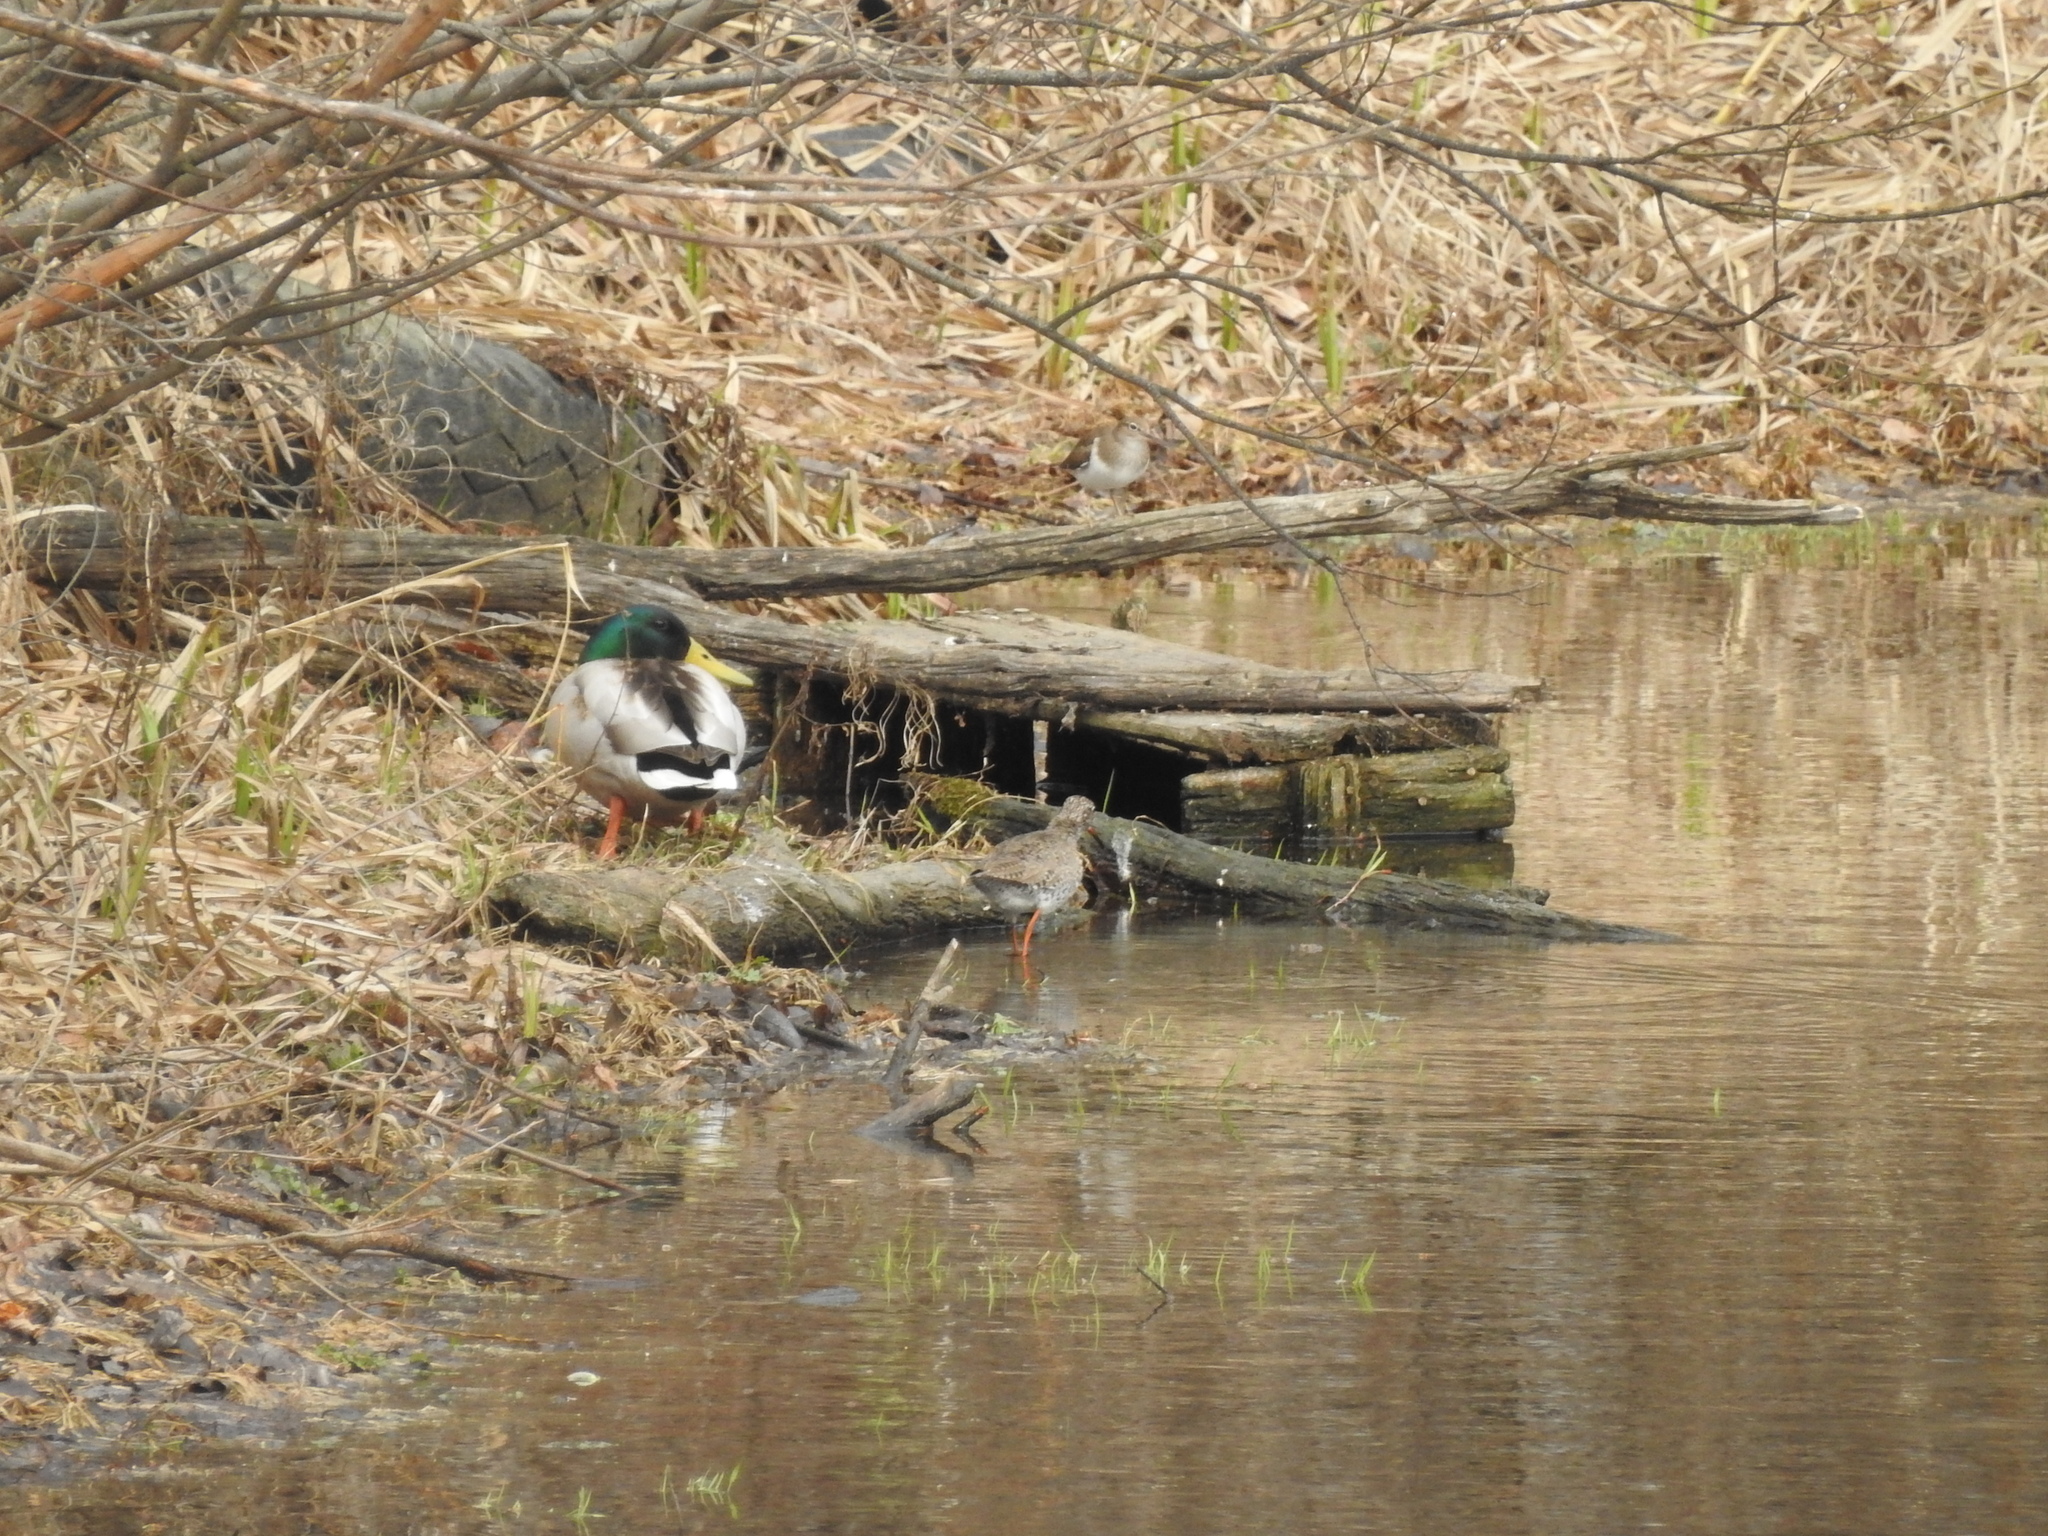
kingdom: Animalia
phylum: Chordata
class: Aves
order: Anseriformes
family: Anatidae
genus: Anas
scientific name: Anas platyrhynchos
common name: Mallard
